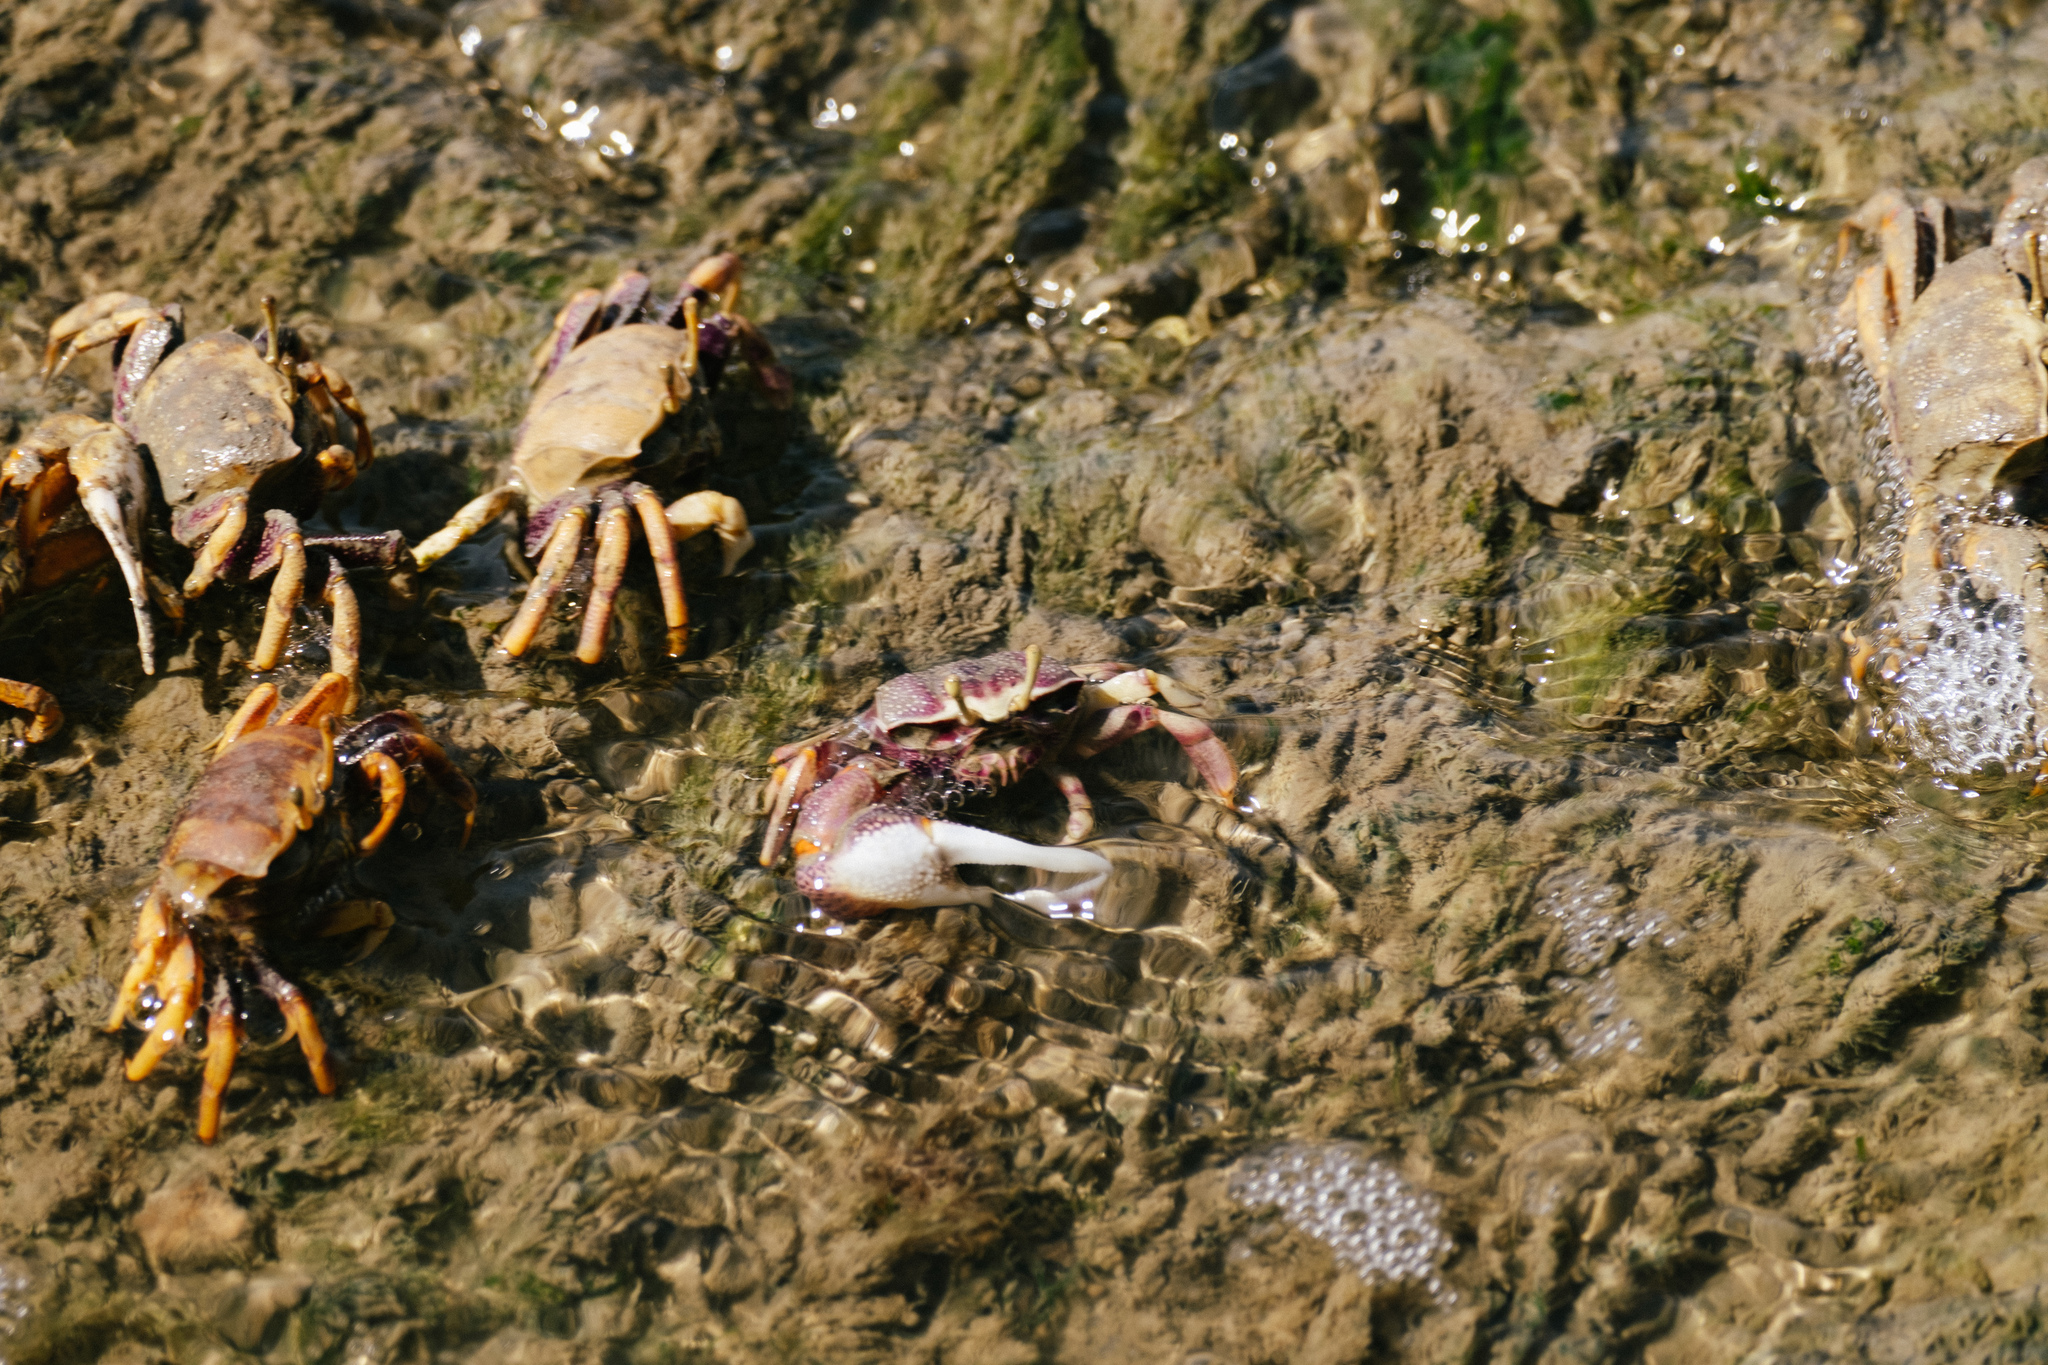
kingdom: Animalia
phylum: Arthropoda
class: Malacostraca
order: Decapoda
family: Ocypodidae
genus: Afruca
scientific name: Afruca tangeri
